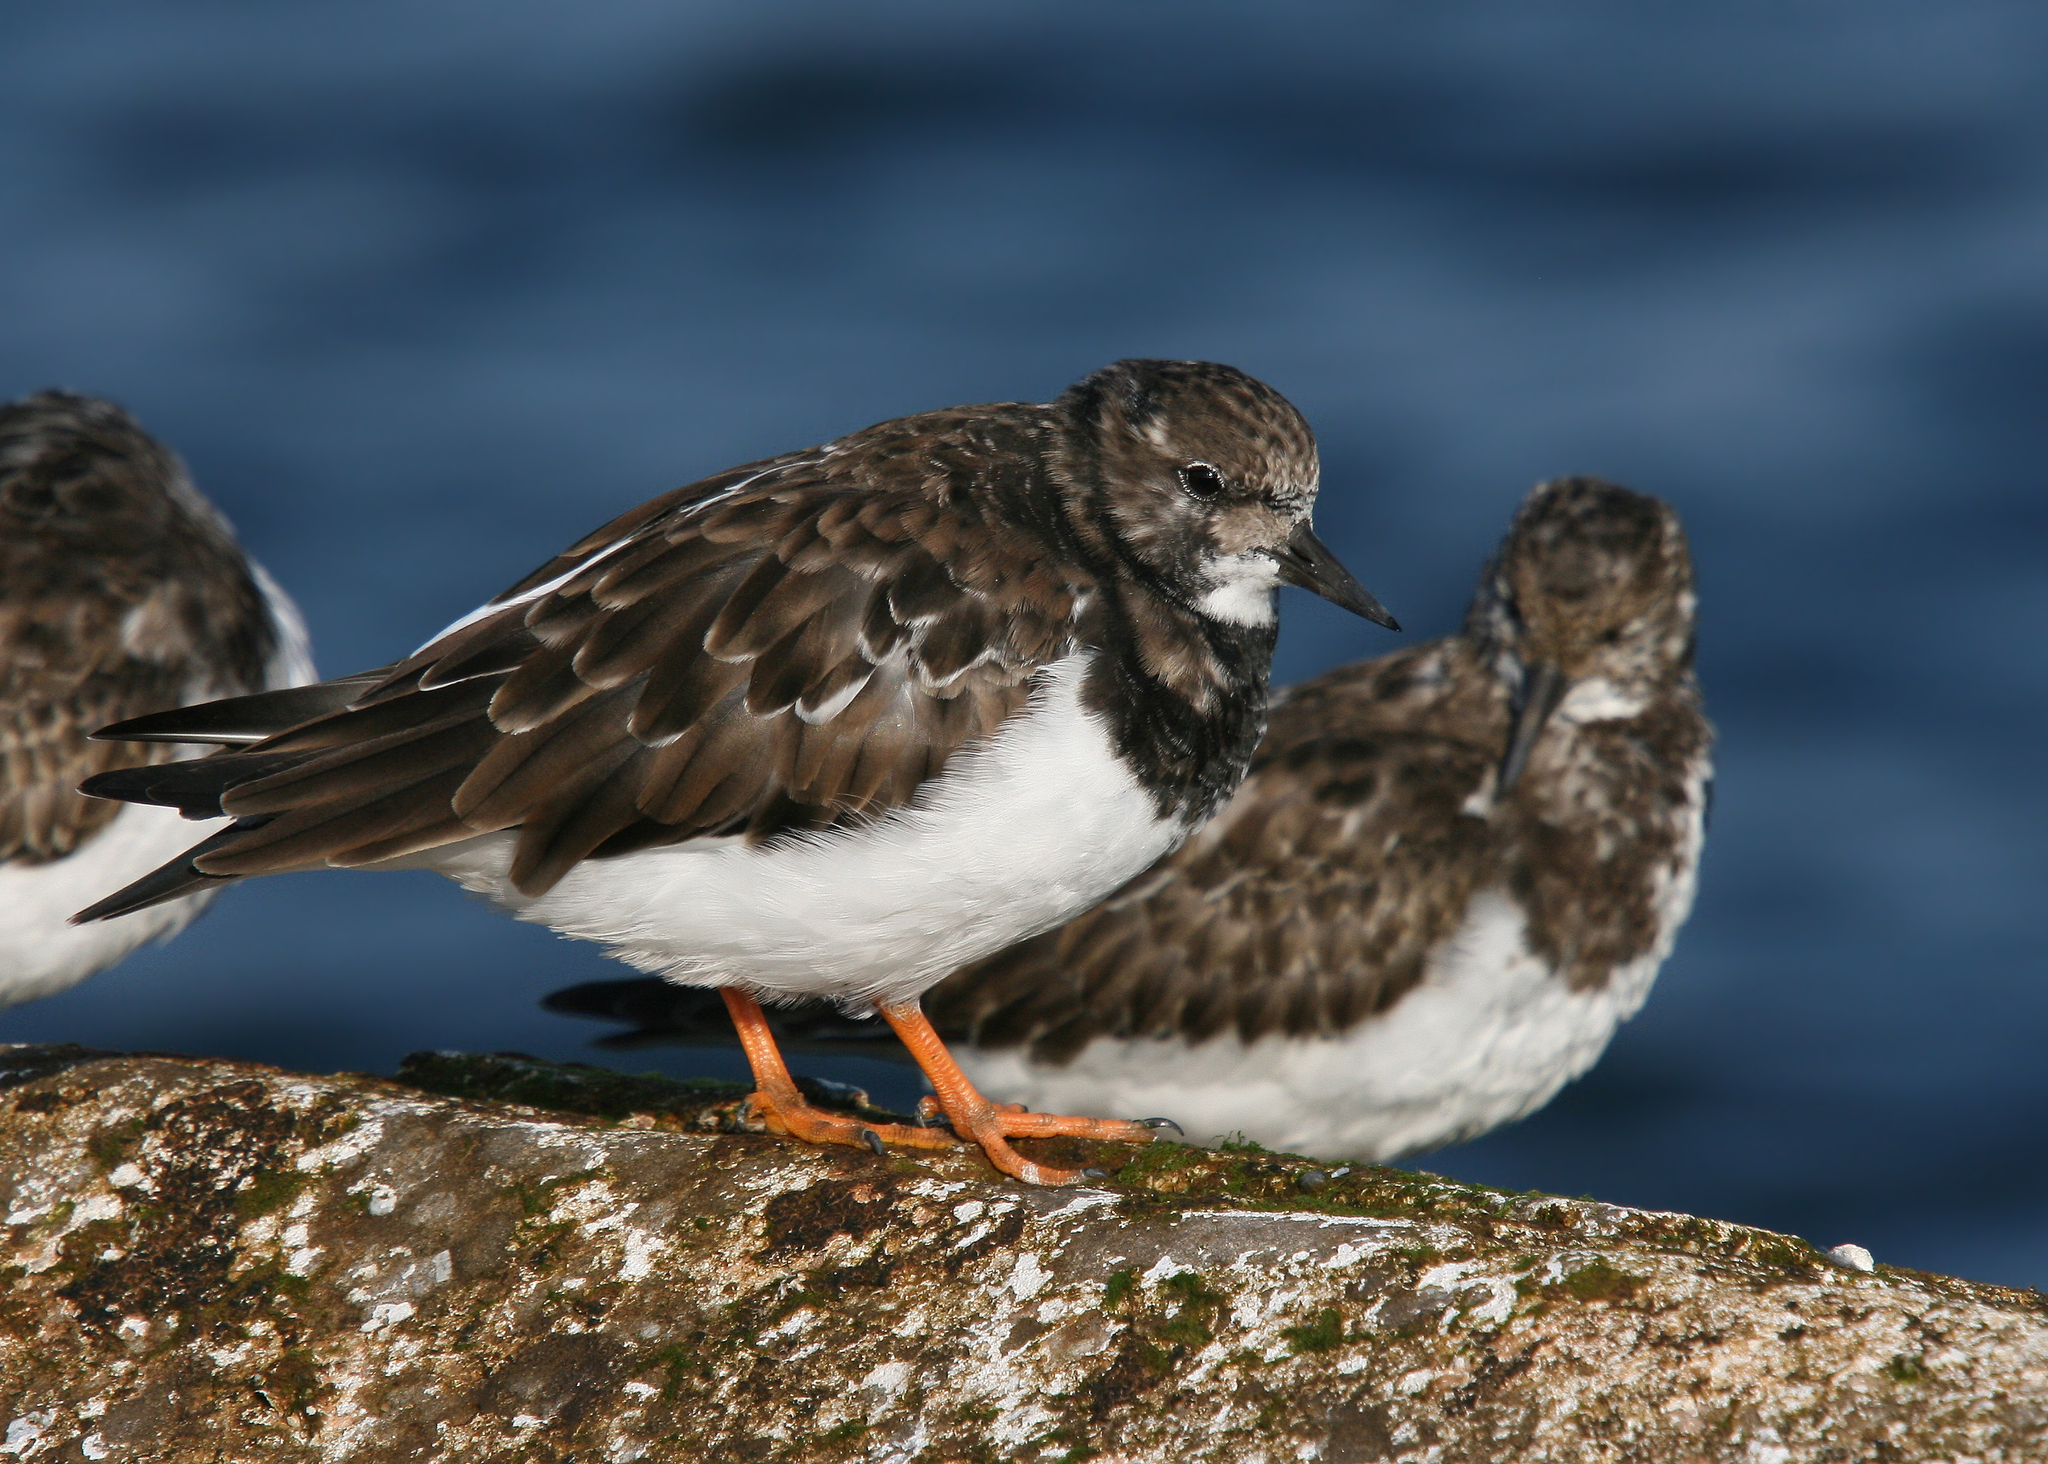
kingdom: Animalia
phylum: Chordata
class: Aves
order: Charadriiformes
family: Scolopacidae
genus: Arenaria
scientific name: Arenaria interpres
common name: Ruddy turnstone
